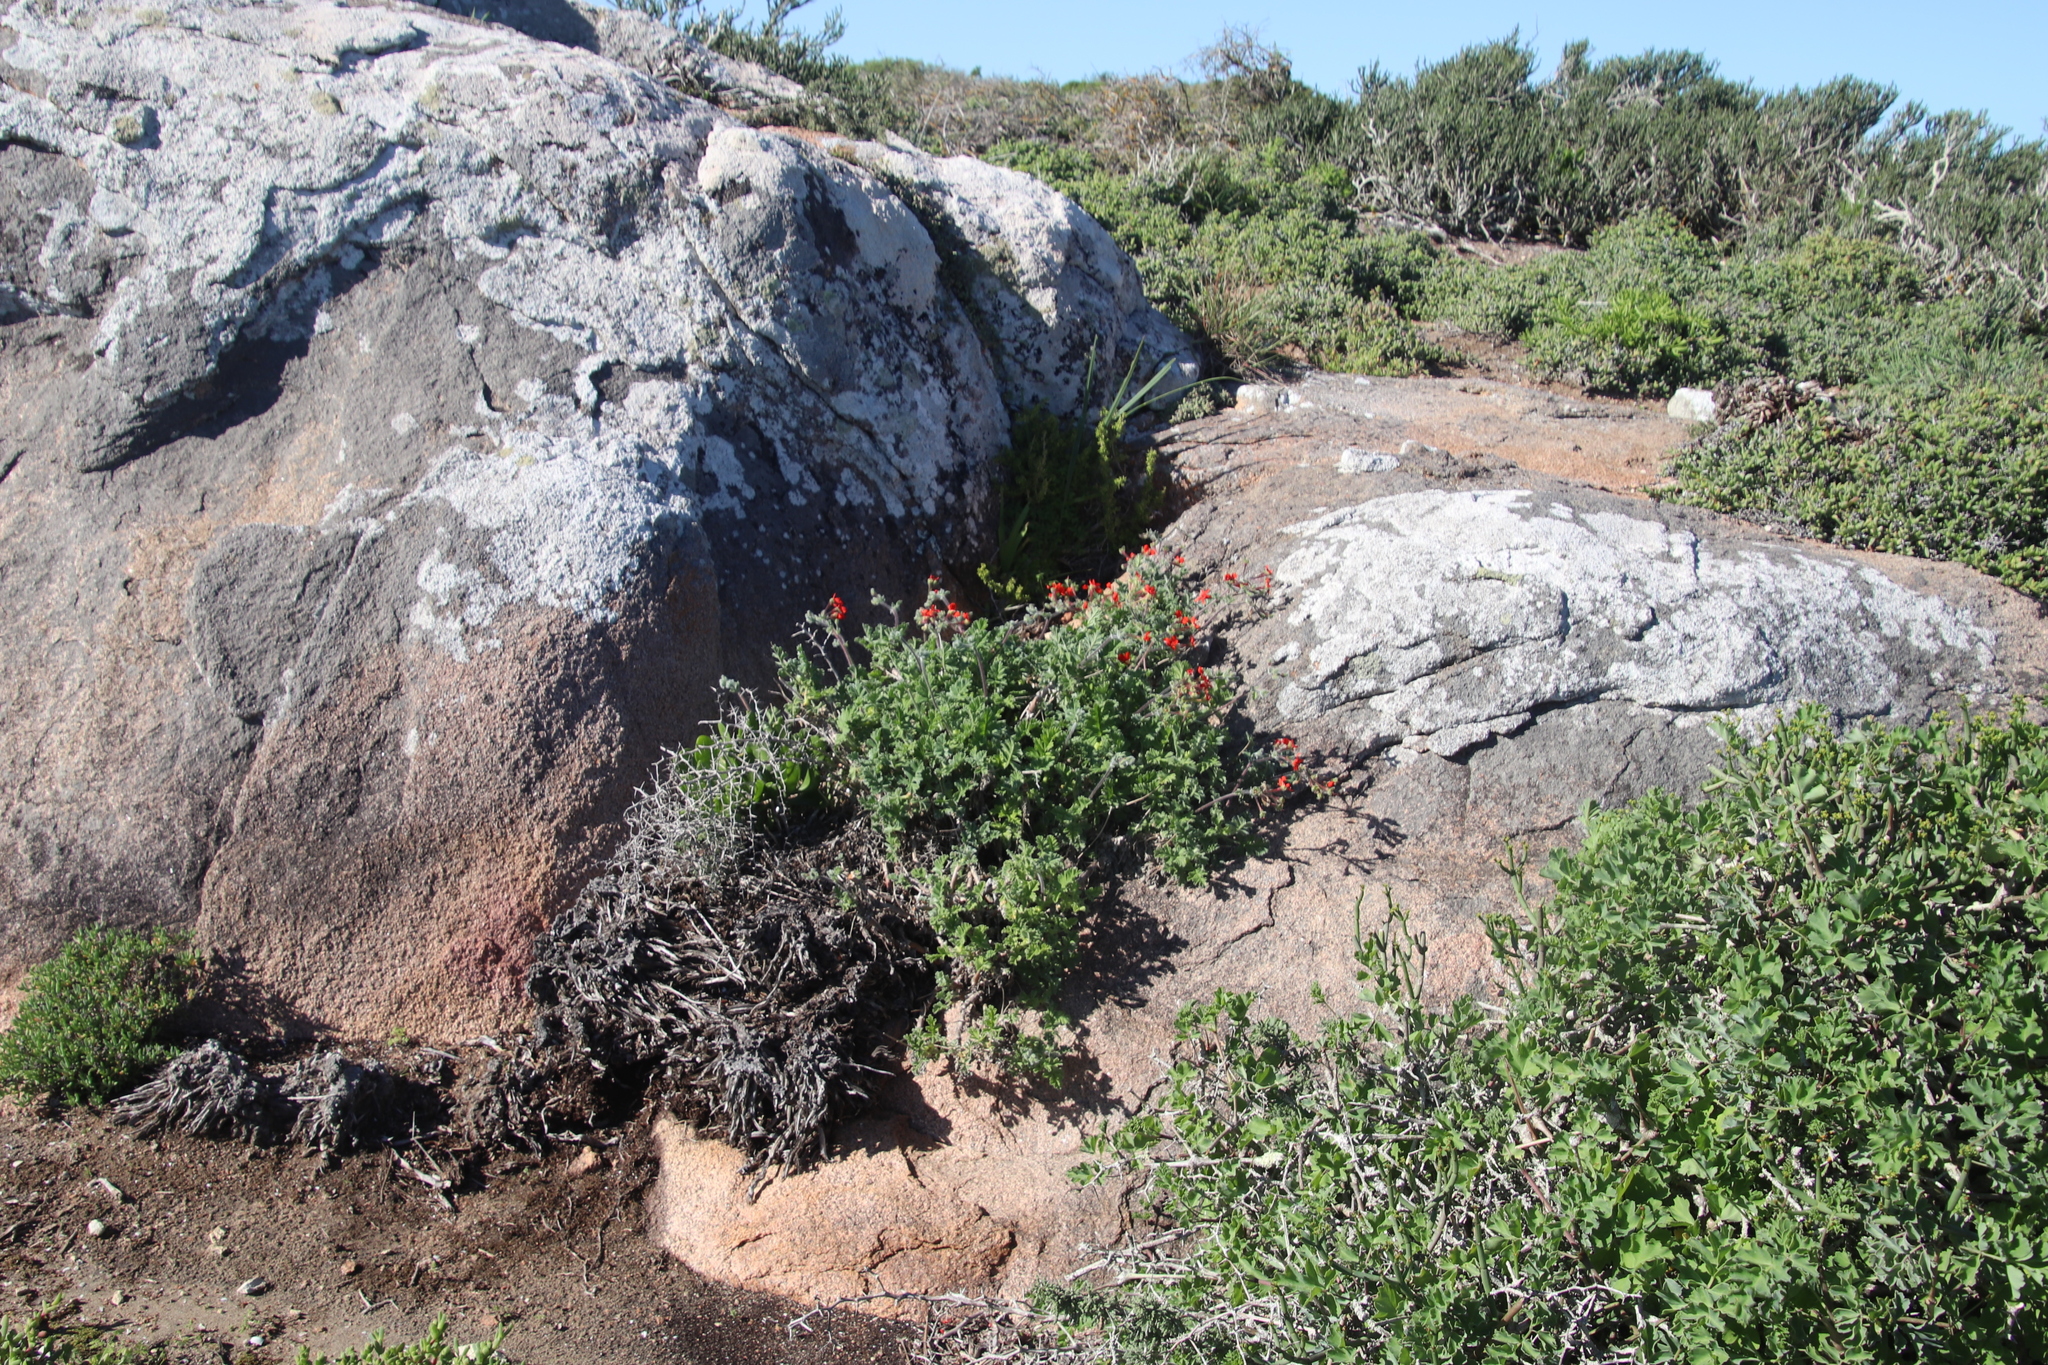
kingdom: Plantae
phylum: Tracheophyta
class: Magnoliopsida
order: Geraniales
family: Geraniaceae
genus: Pelargonium
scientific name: Pelargonium fulgidum
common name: Celandine-leaf pelargonium
